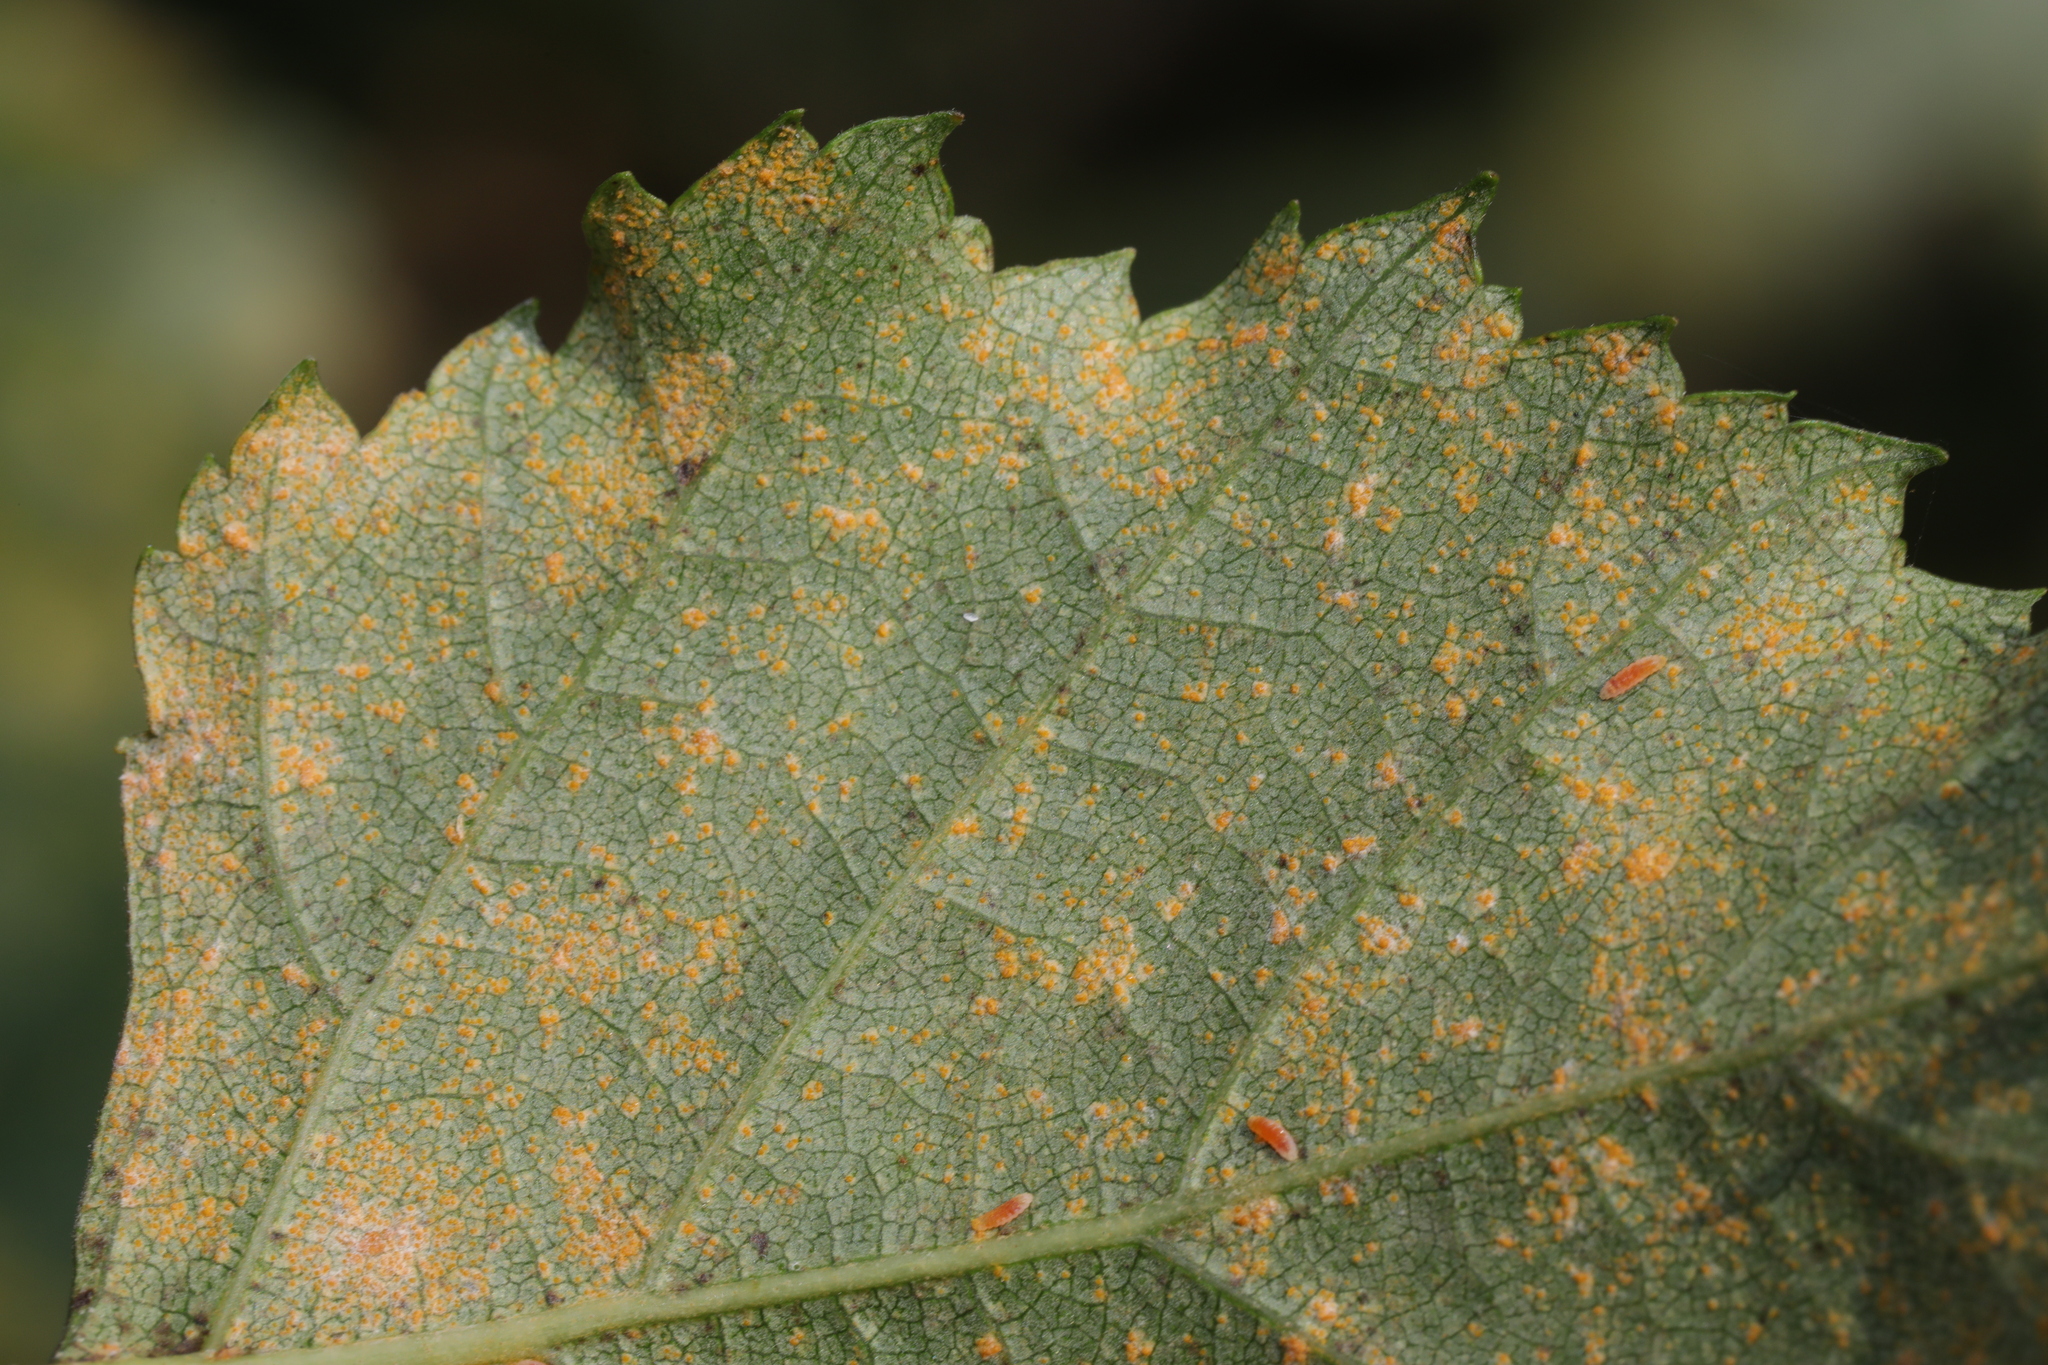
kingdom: Fungi
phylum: Basidiomycota
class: Pucciniomycetes
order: Pucciniales
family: Pucciniastraceae
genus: Melampsoridium
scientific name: Melampsoridium betulinum
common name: Birch rust
